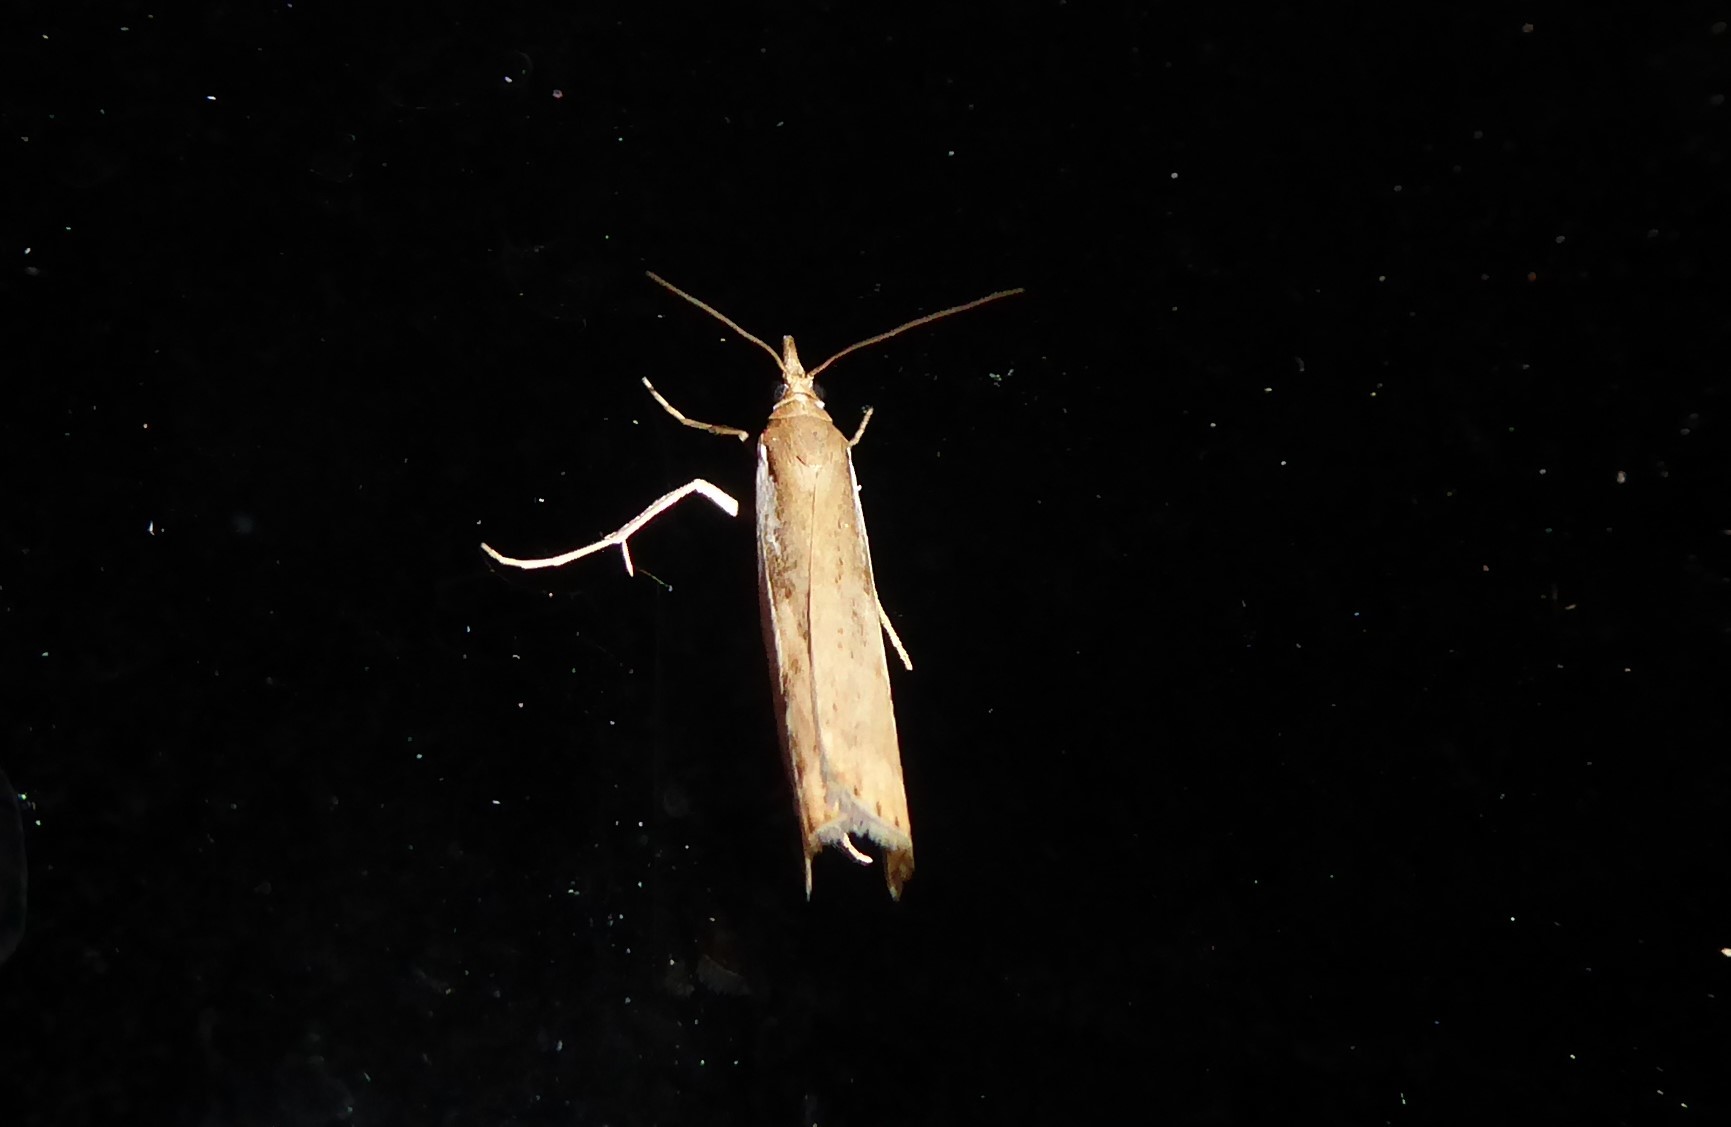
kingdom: Animalia
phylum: Arthropoda
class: Insecta
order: Lepidoptera
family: Crambidae
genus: Orocrambus
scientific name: Orocrambus flexuosellus
